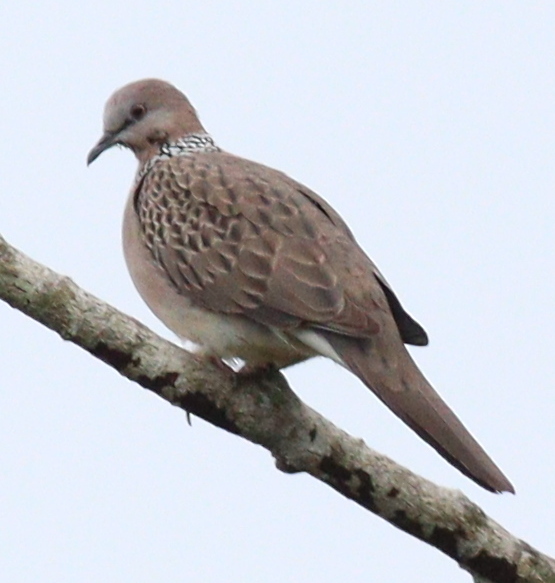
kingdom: Animalia
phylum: Chordata
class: Aves
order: Columbiformes
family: Columbidae
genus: Spilopelia
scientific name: Spilopelia chinensis
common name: Spotted dove
